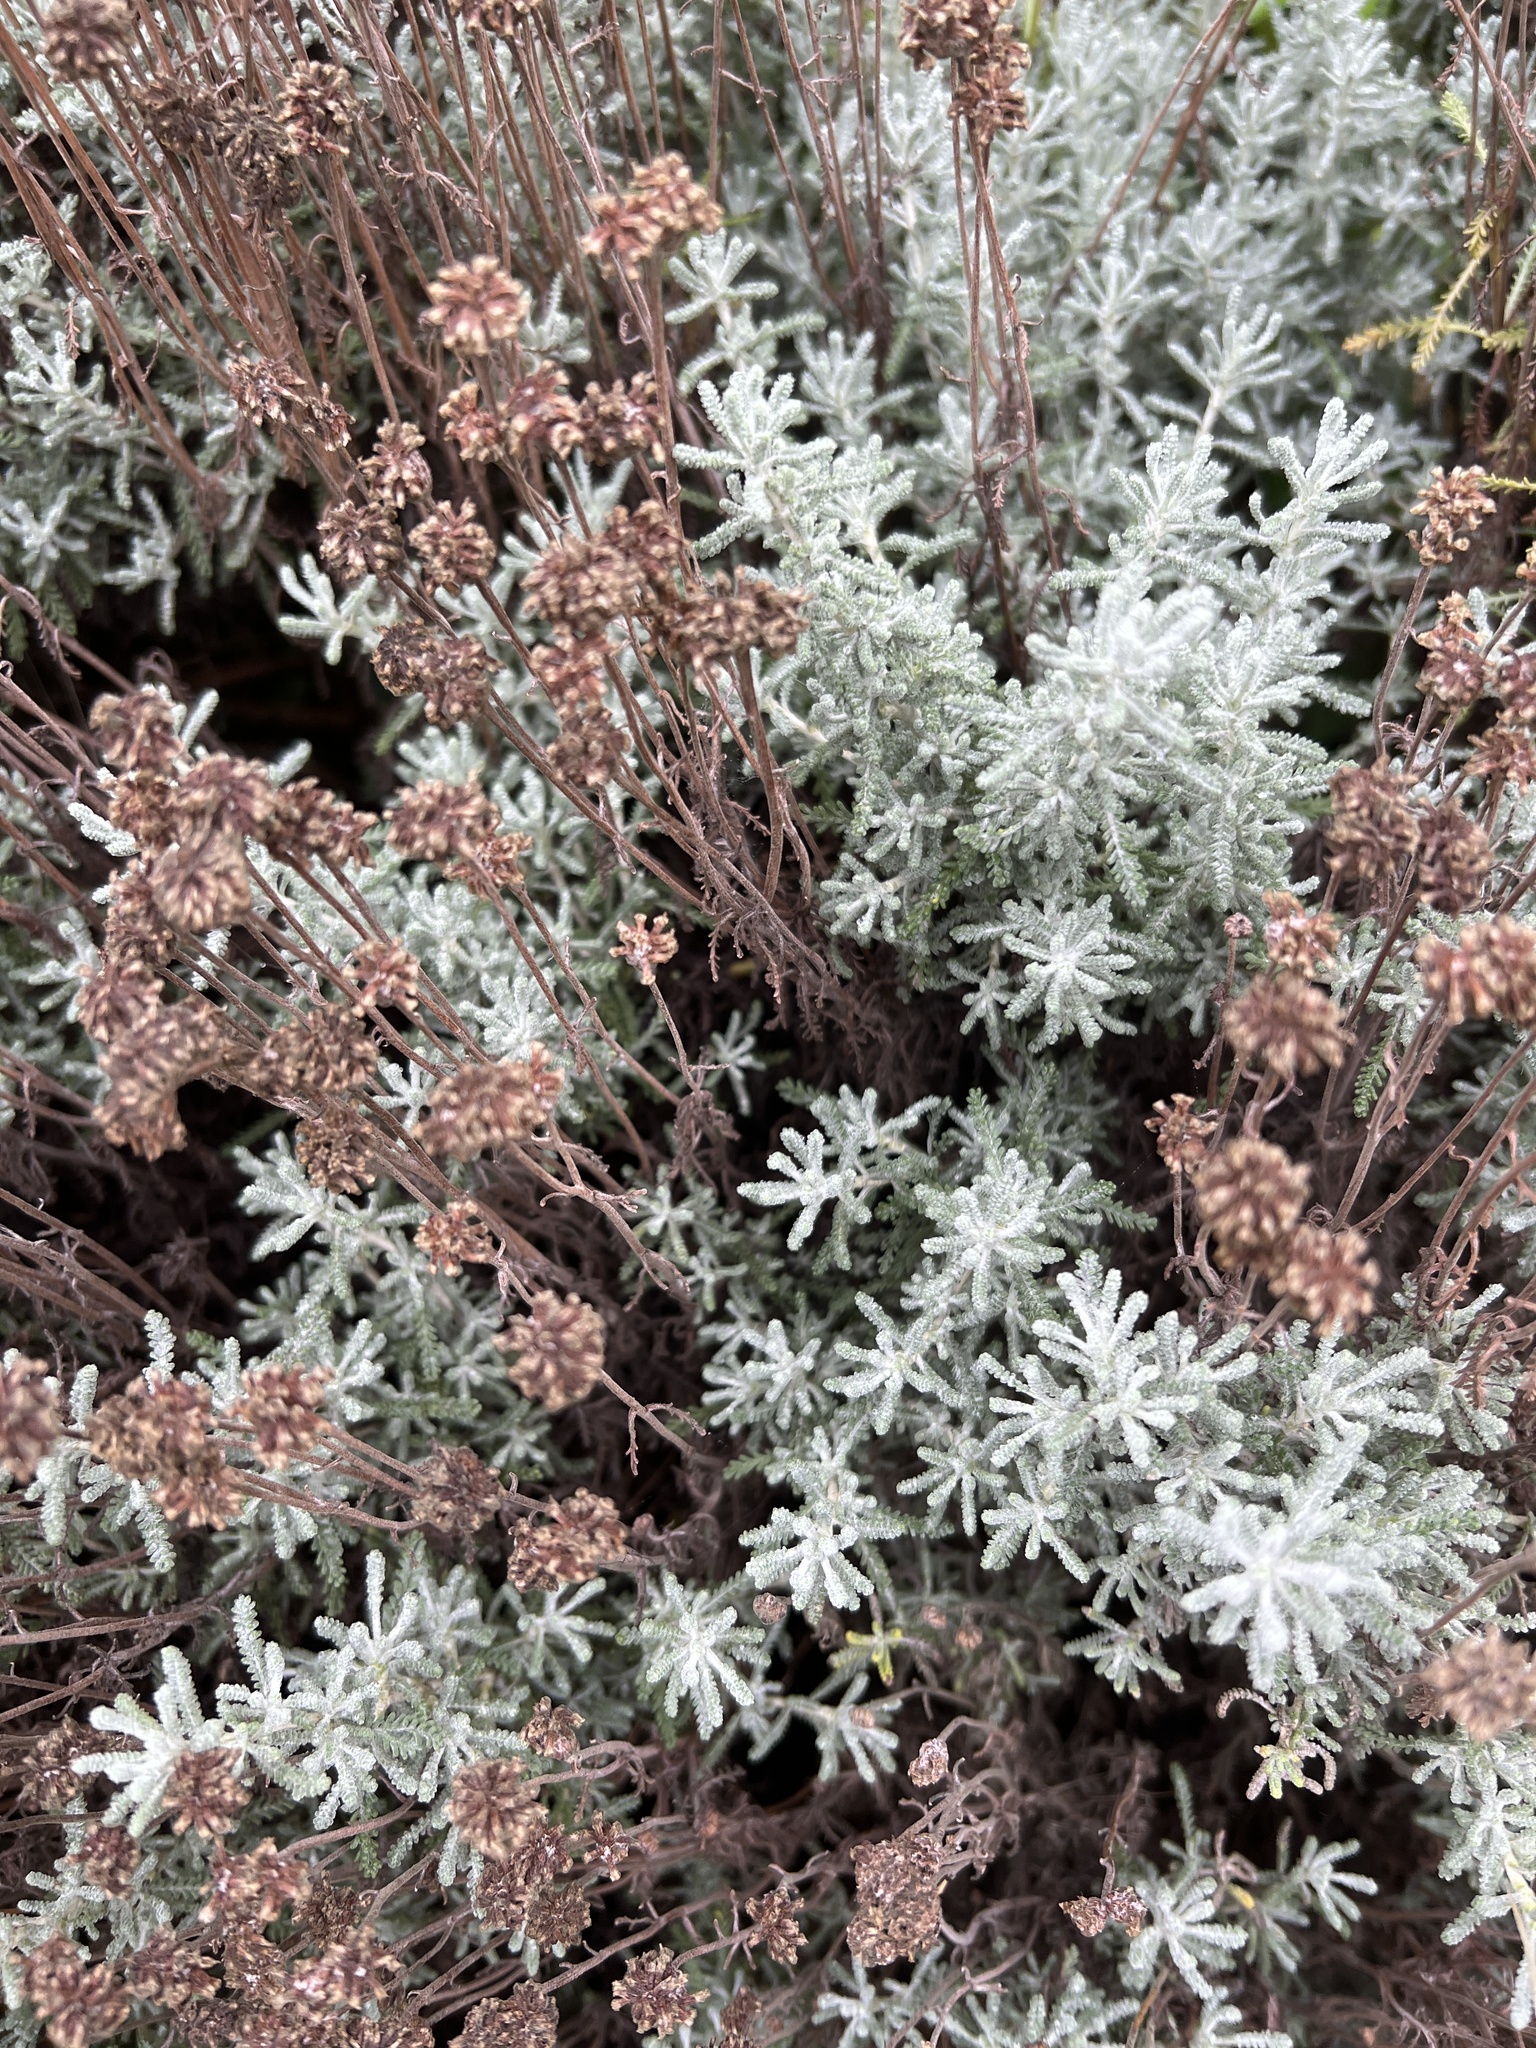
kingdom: Plantae
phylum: Tracheophyta
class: Magnoliopsida
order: Asterales
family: Asteraceae
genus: Santolina
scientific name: Santolina chamaecyparissus
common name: Lavender-cotton
